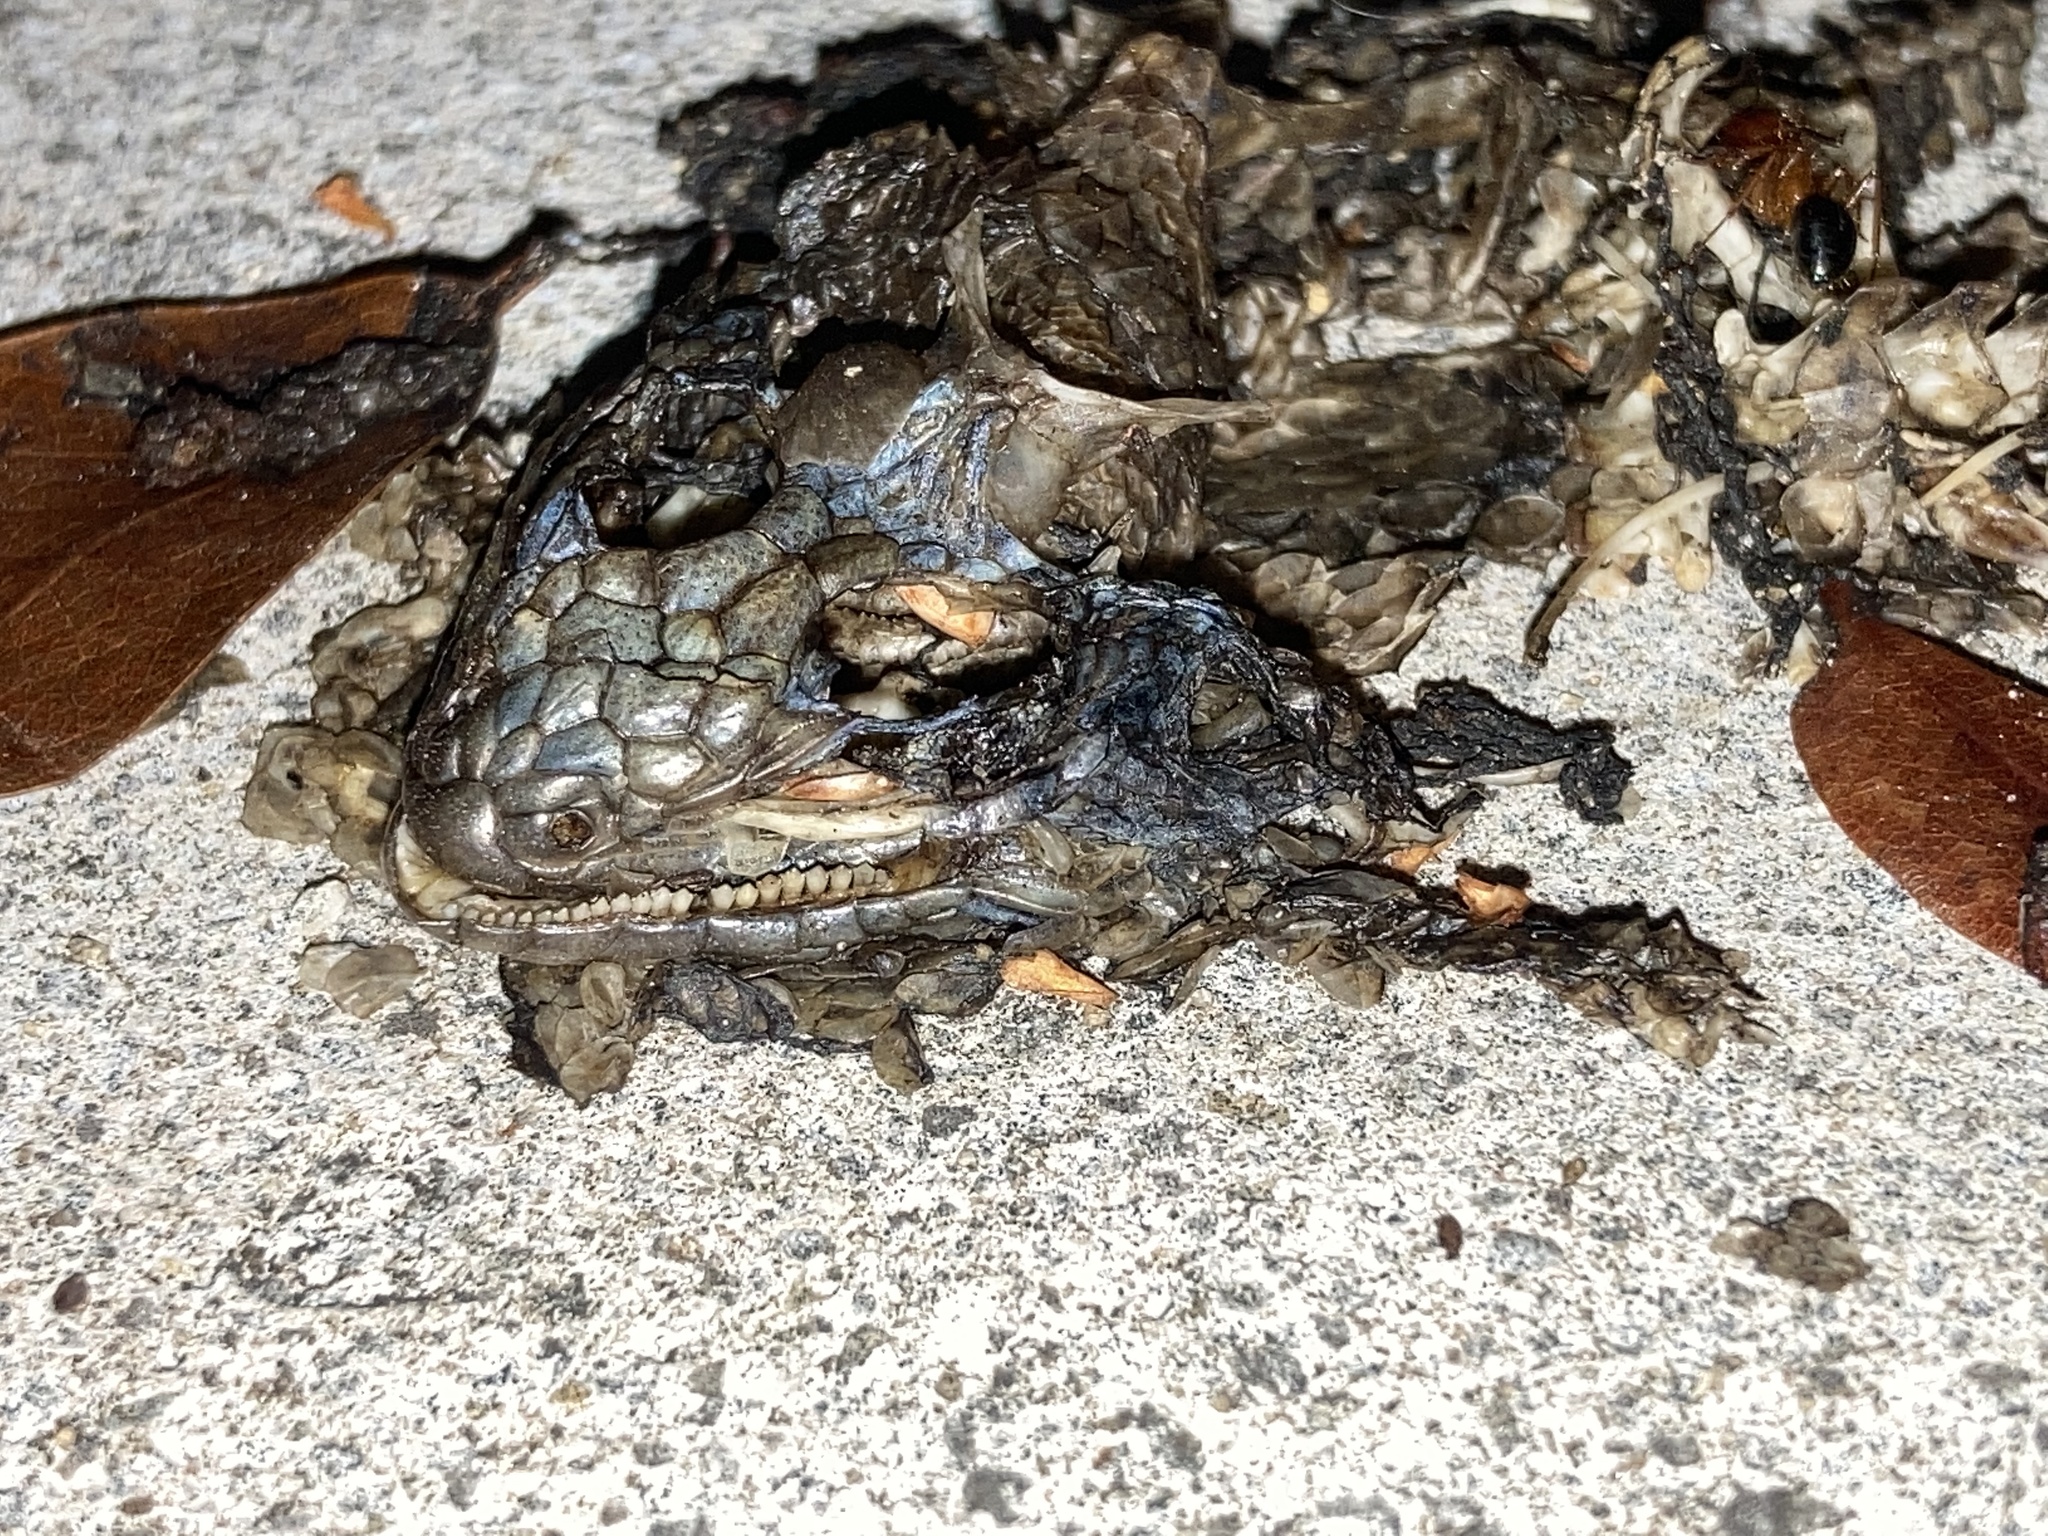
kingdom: Animalia
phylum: Chordata
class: Squamata
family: Leiocephalidae
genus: Leiocephalus
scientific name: Leiocephalus carinatus
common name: Northern curly-tailed lizard
